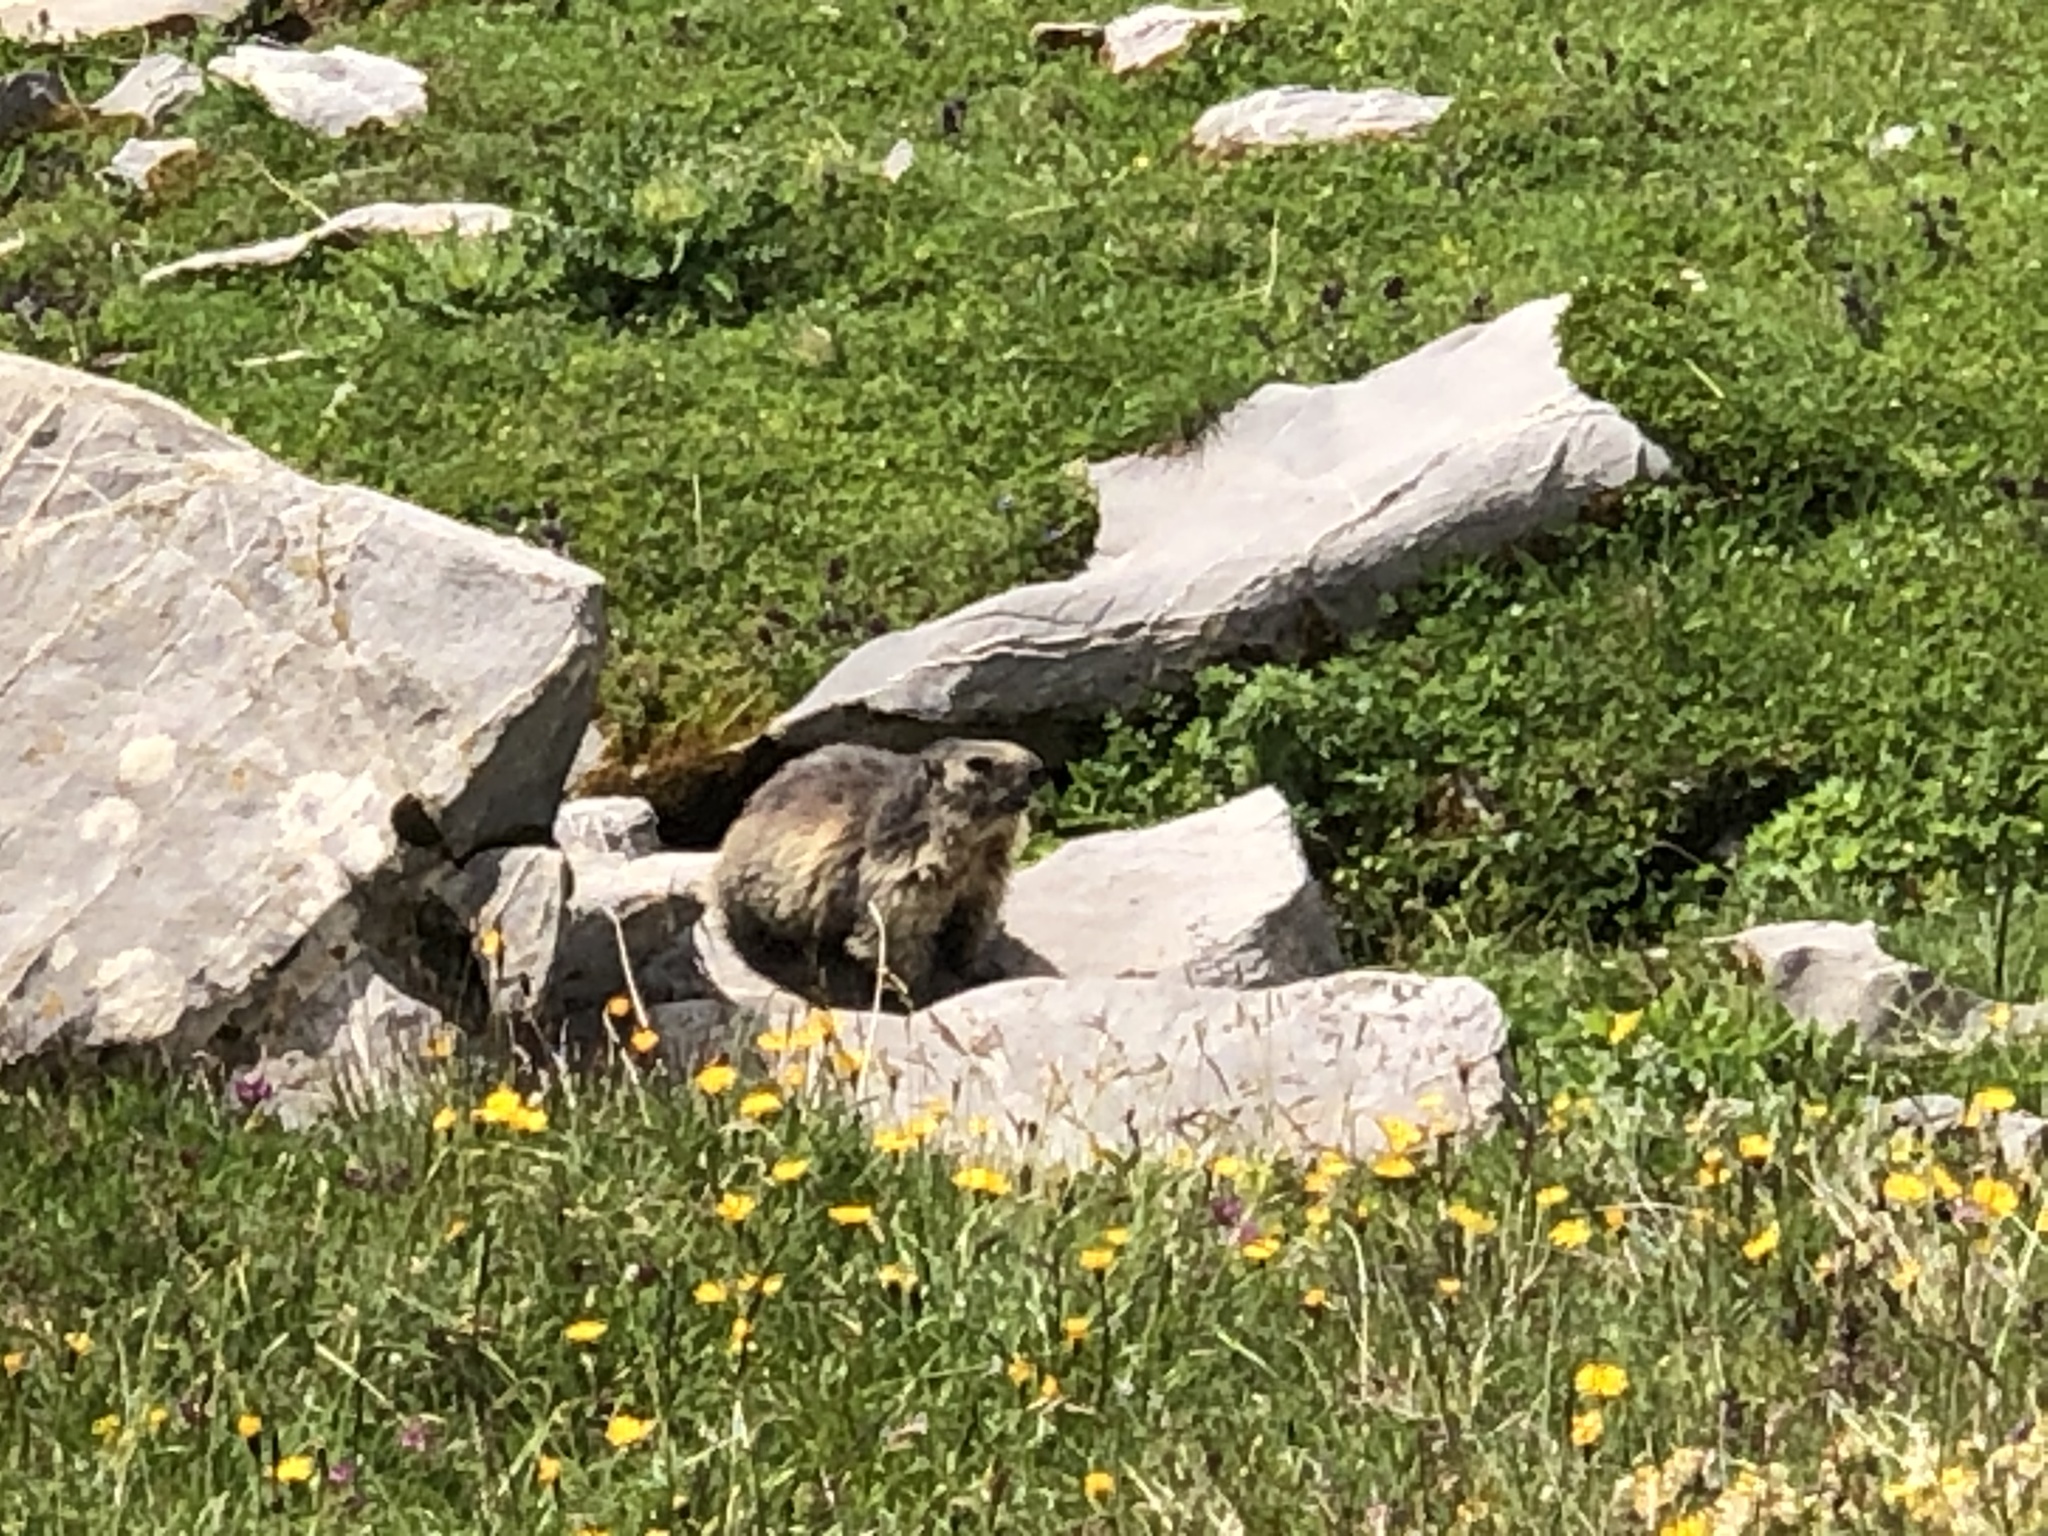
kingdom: Animalia
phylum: Chordata
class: Mammalia
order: Rodentia
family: Sciuridae
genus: Marmota
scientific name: Marmota marmota
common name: Alpine marmot
